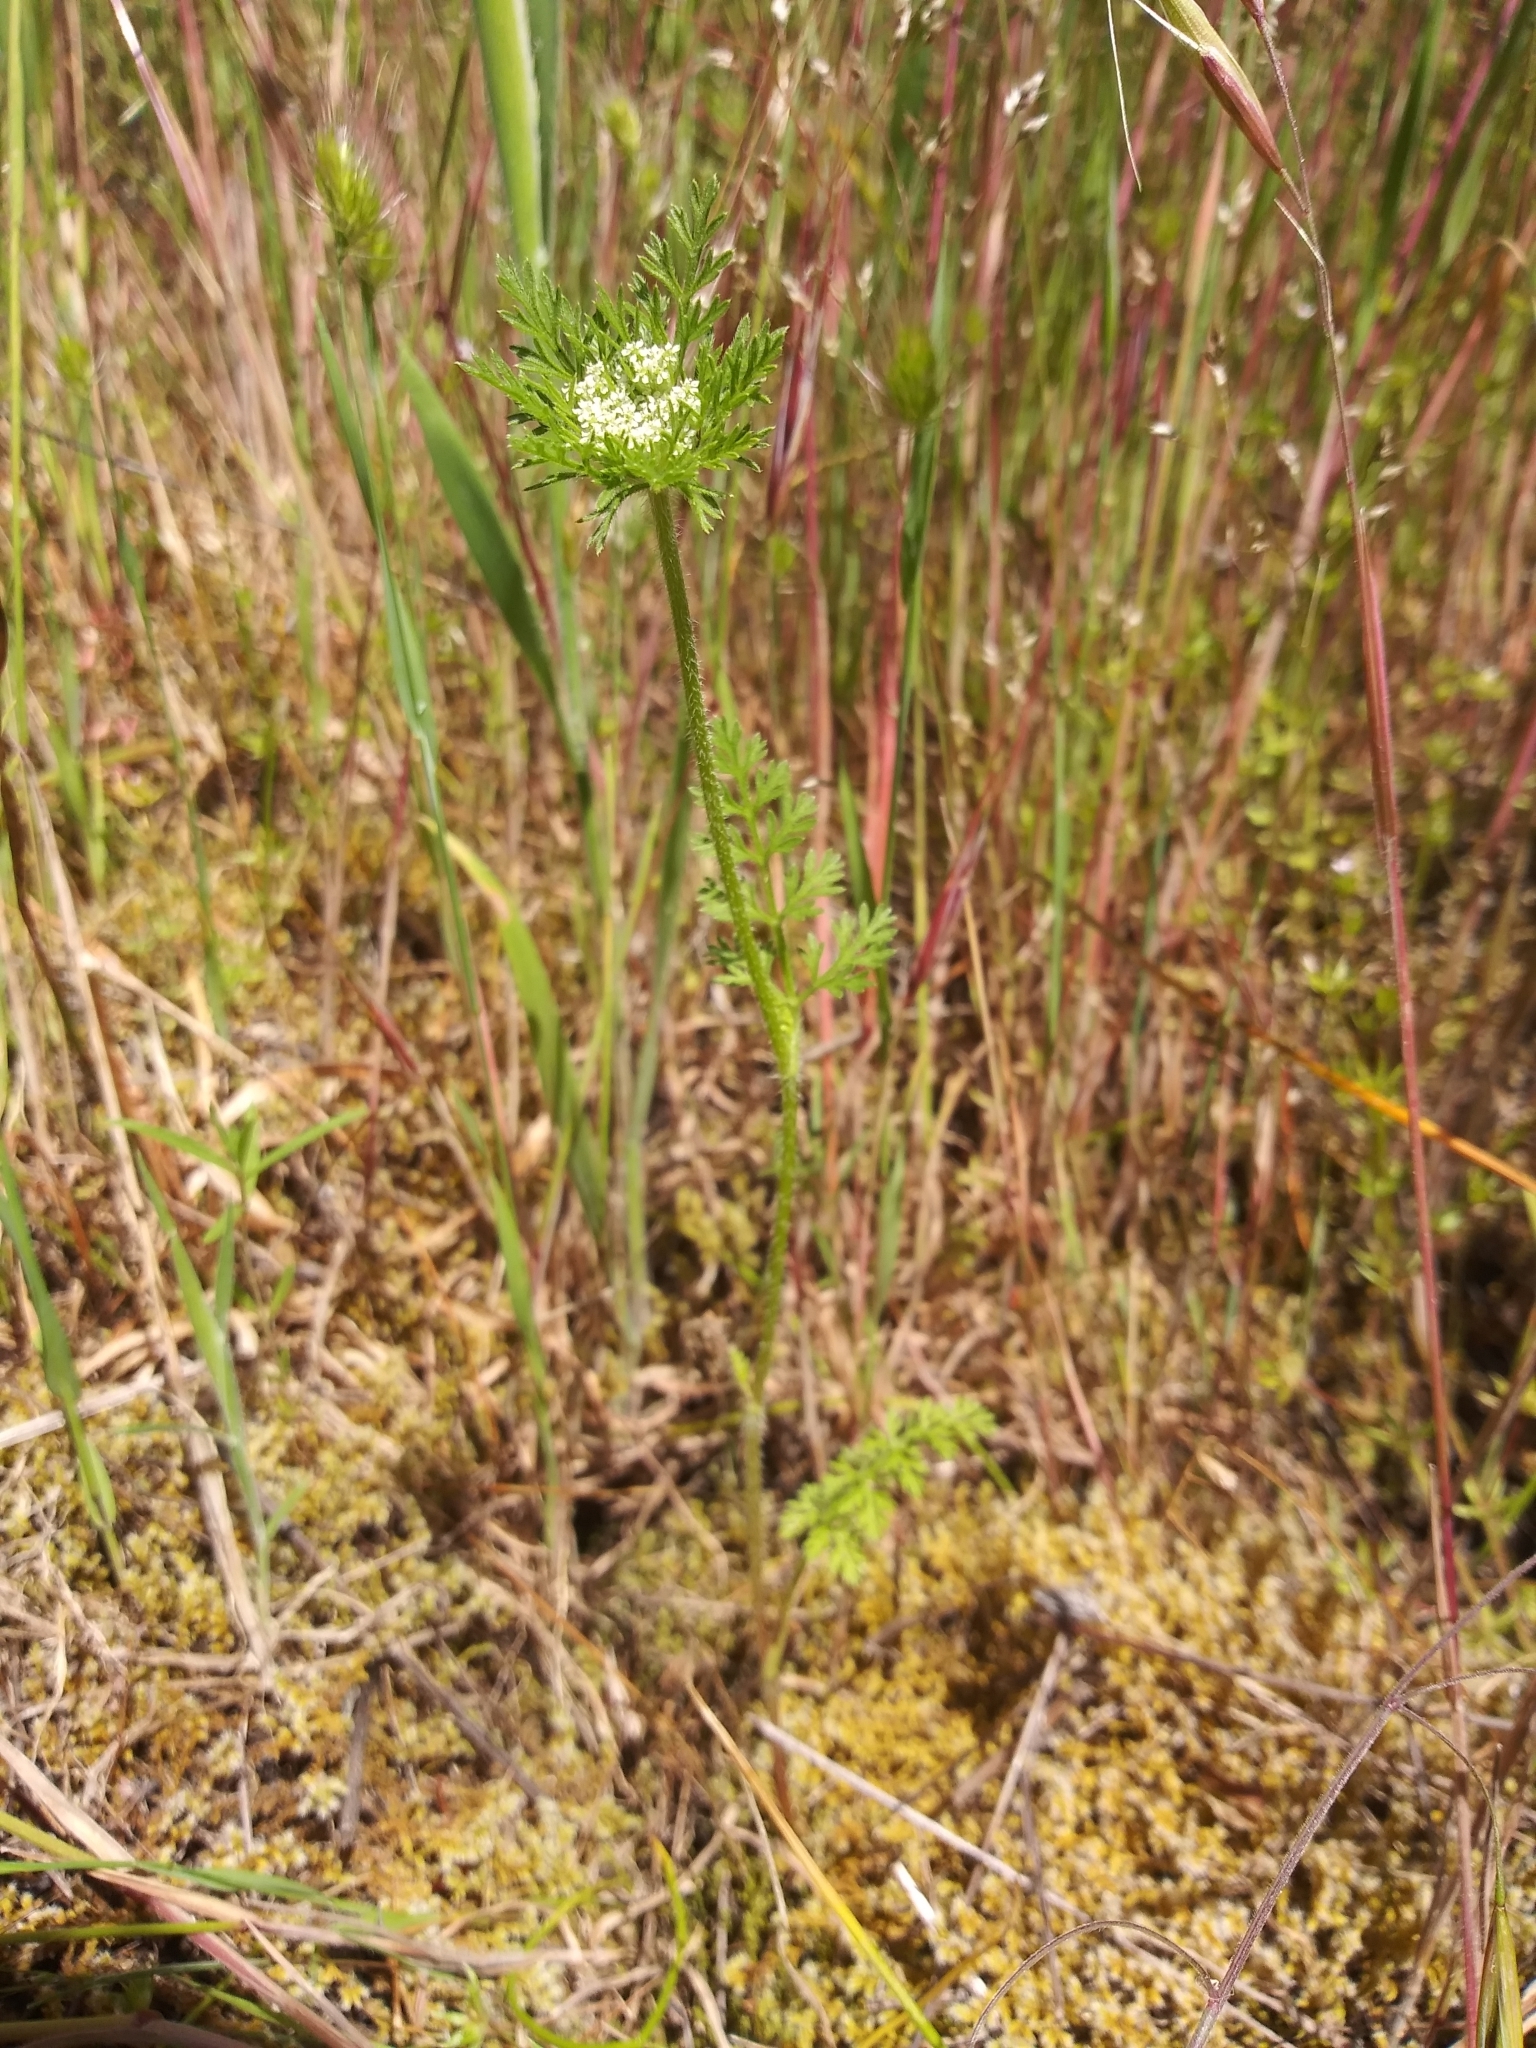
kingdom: Plantae
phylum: Tracheophyta
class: Magnoliopsida
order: Apiales
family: Apiaceae
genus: Daucus
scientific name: Daucus pusillus
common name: Southwest wild carrot
